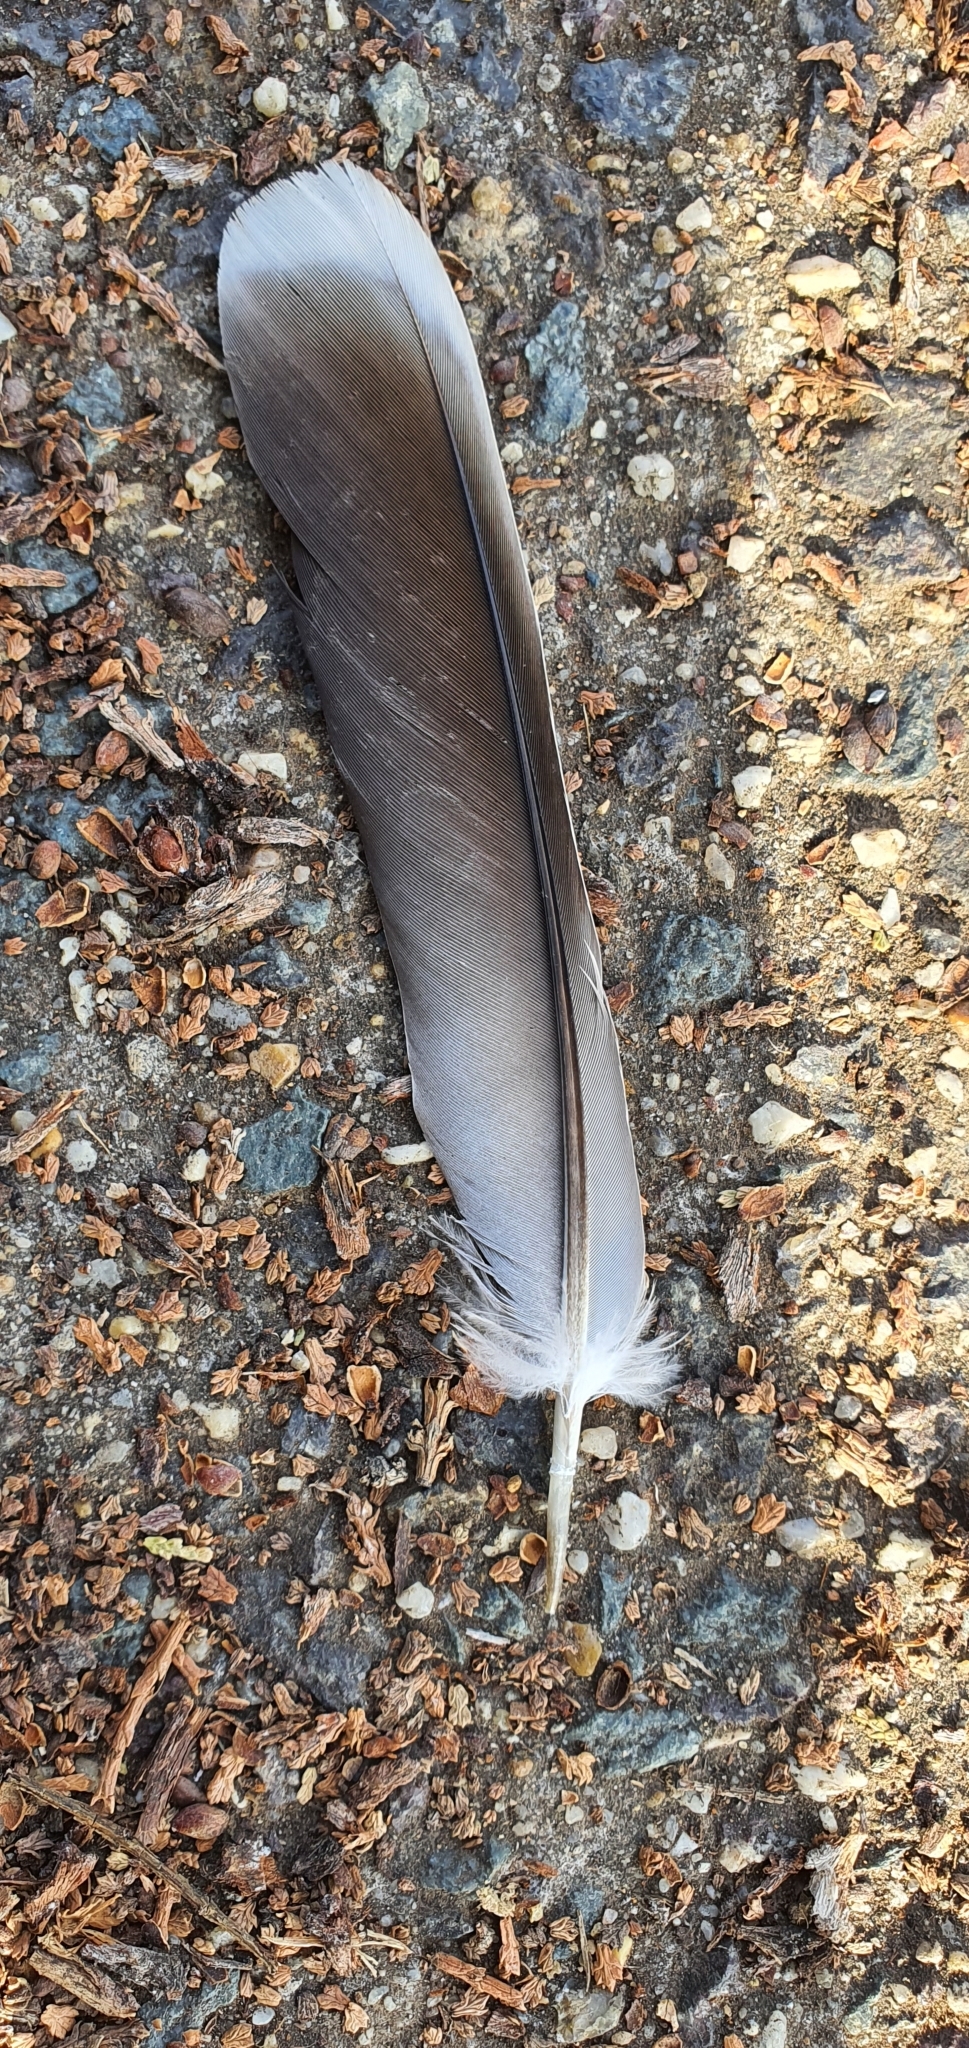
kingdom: Animalia
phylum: Chordata
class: Aves
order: Columbiformes
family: Columbidae
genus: Ocyphaps
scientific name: Ocyphaps lophotes
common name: Crested pigeon
